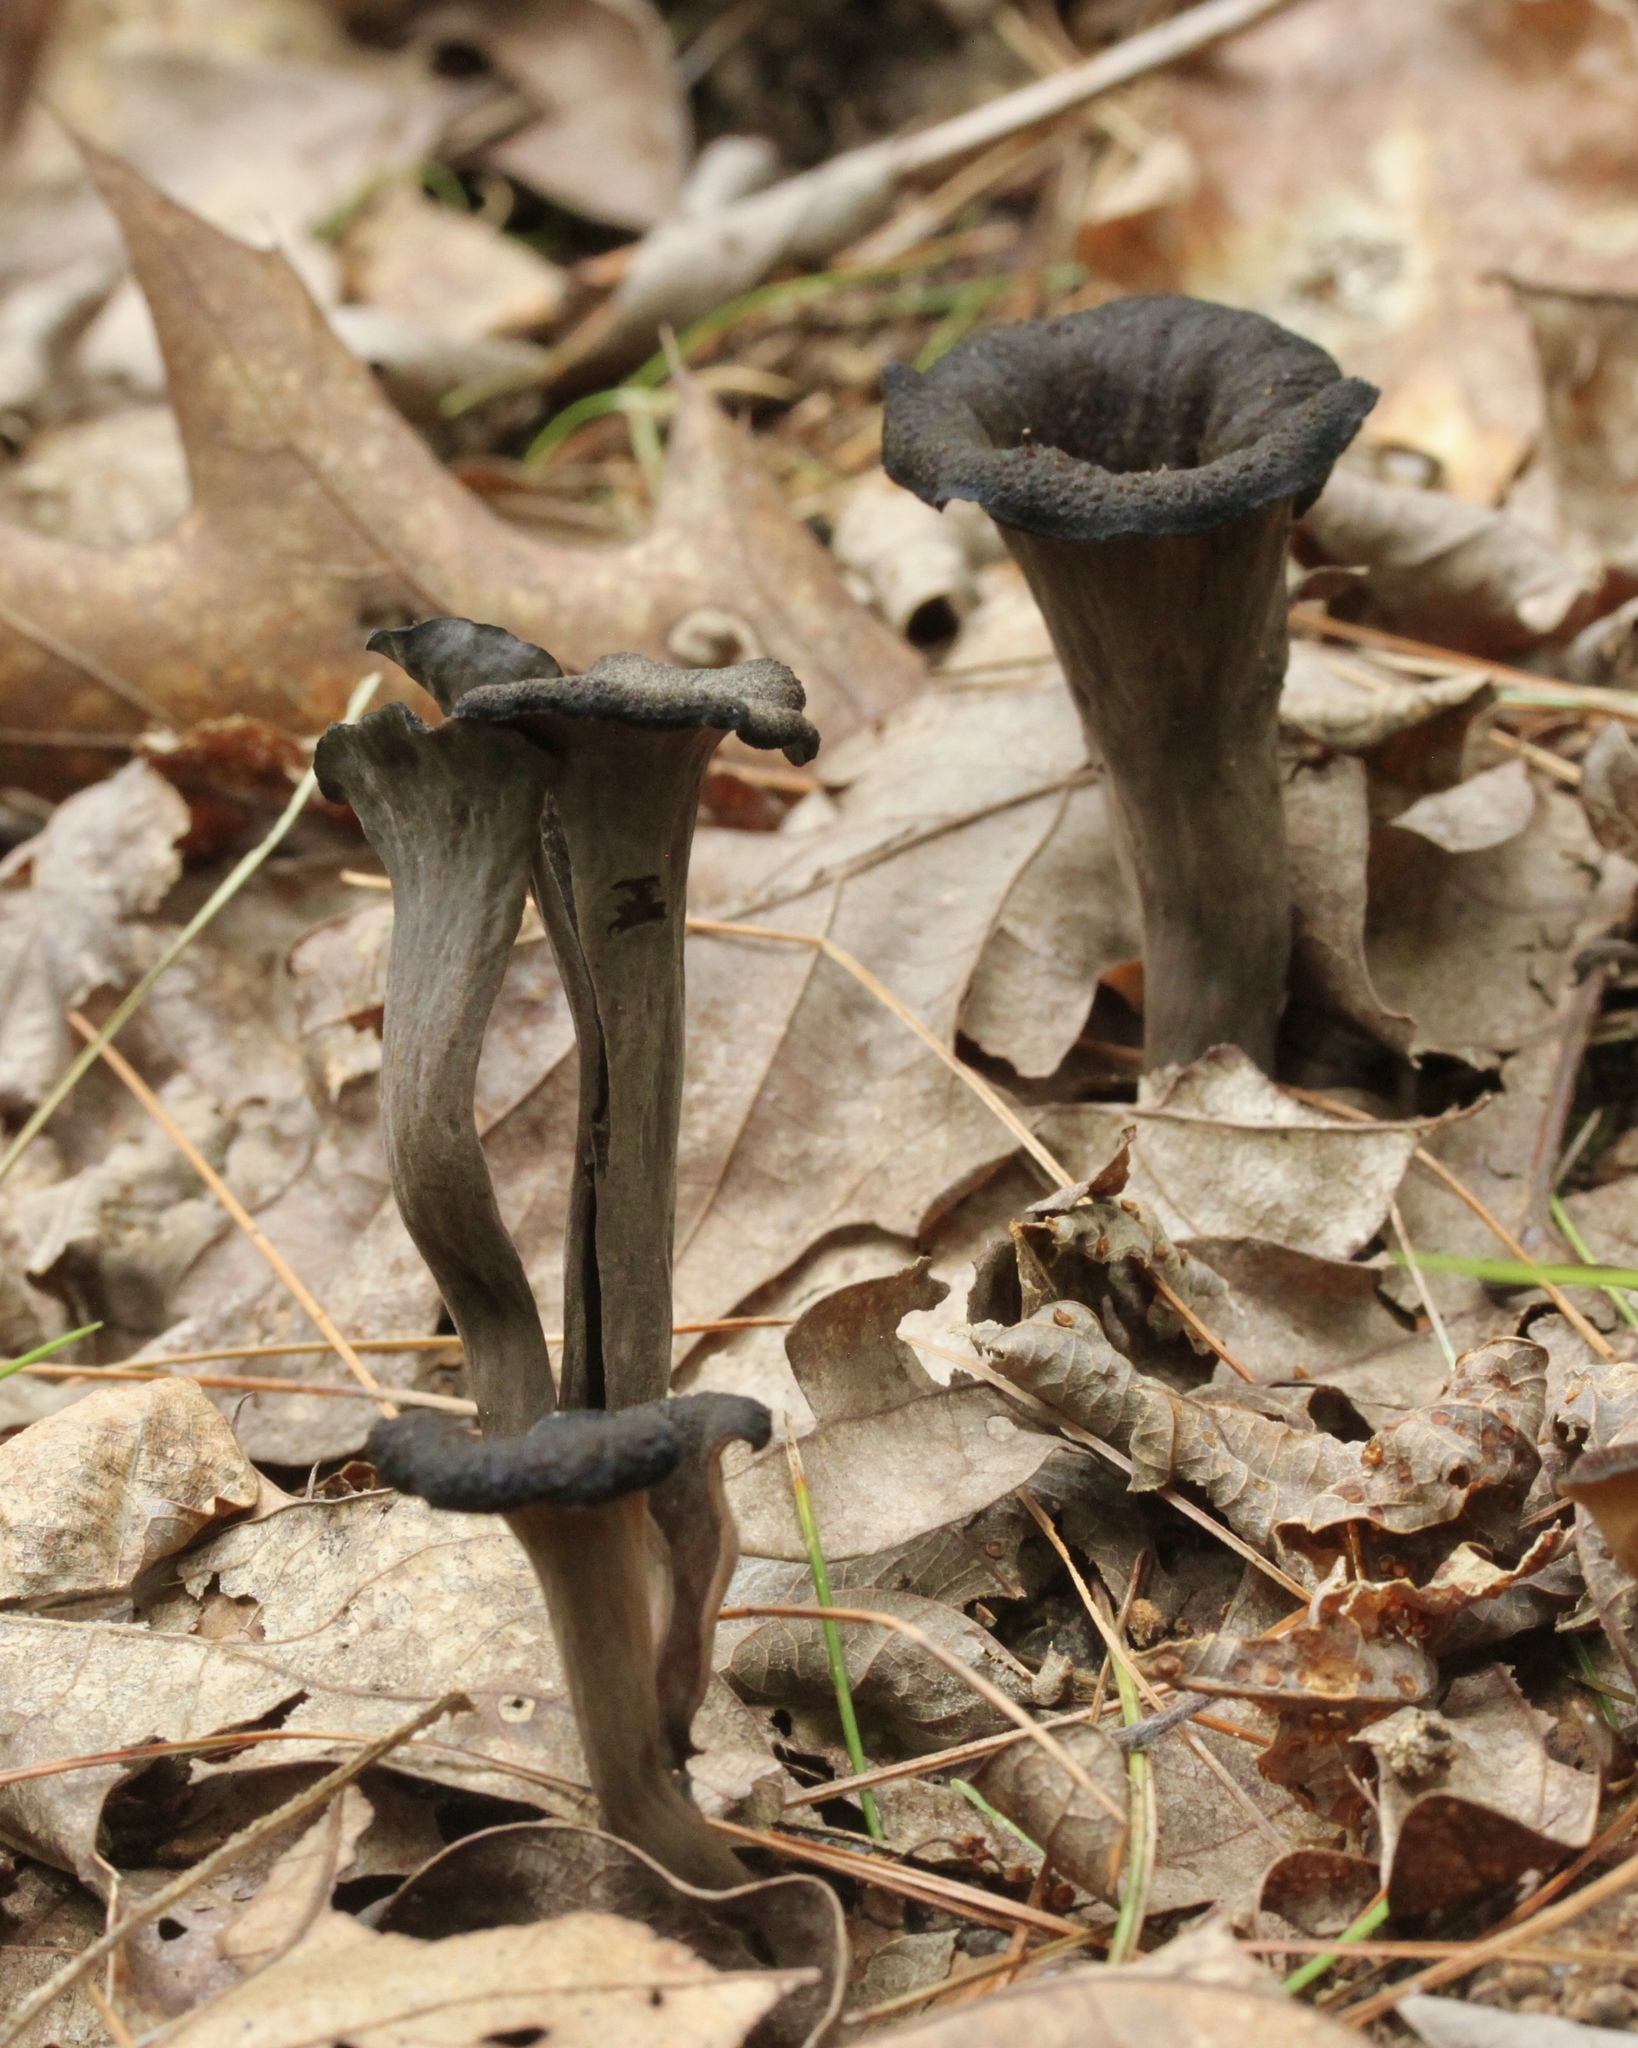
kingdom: Fungi
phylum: Basidiomycota
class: Agaricomycetes
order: Cantharellales
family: Hydnaceae
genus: Craterellus
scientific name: Craterellus cornucopioides
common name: Horn of plenty
